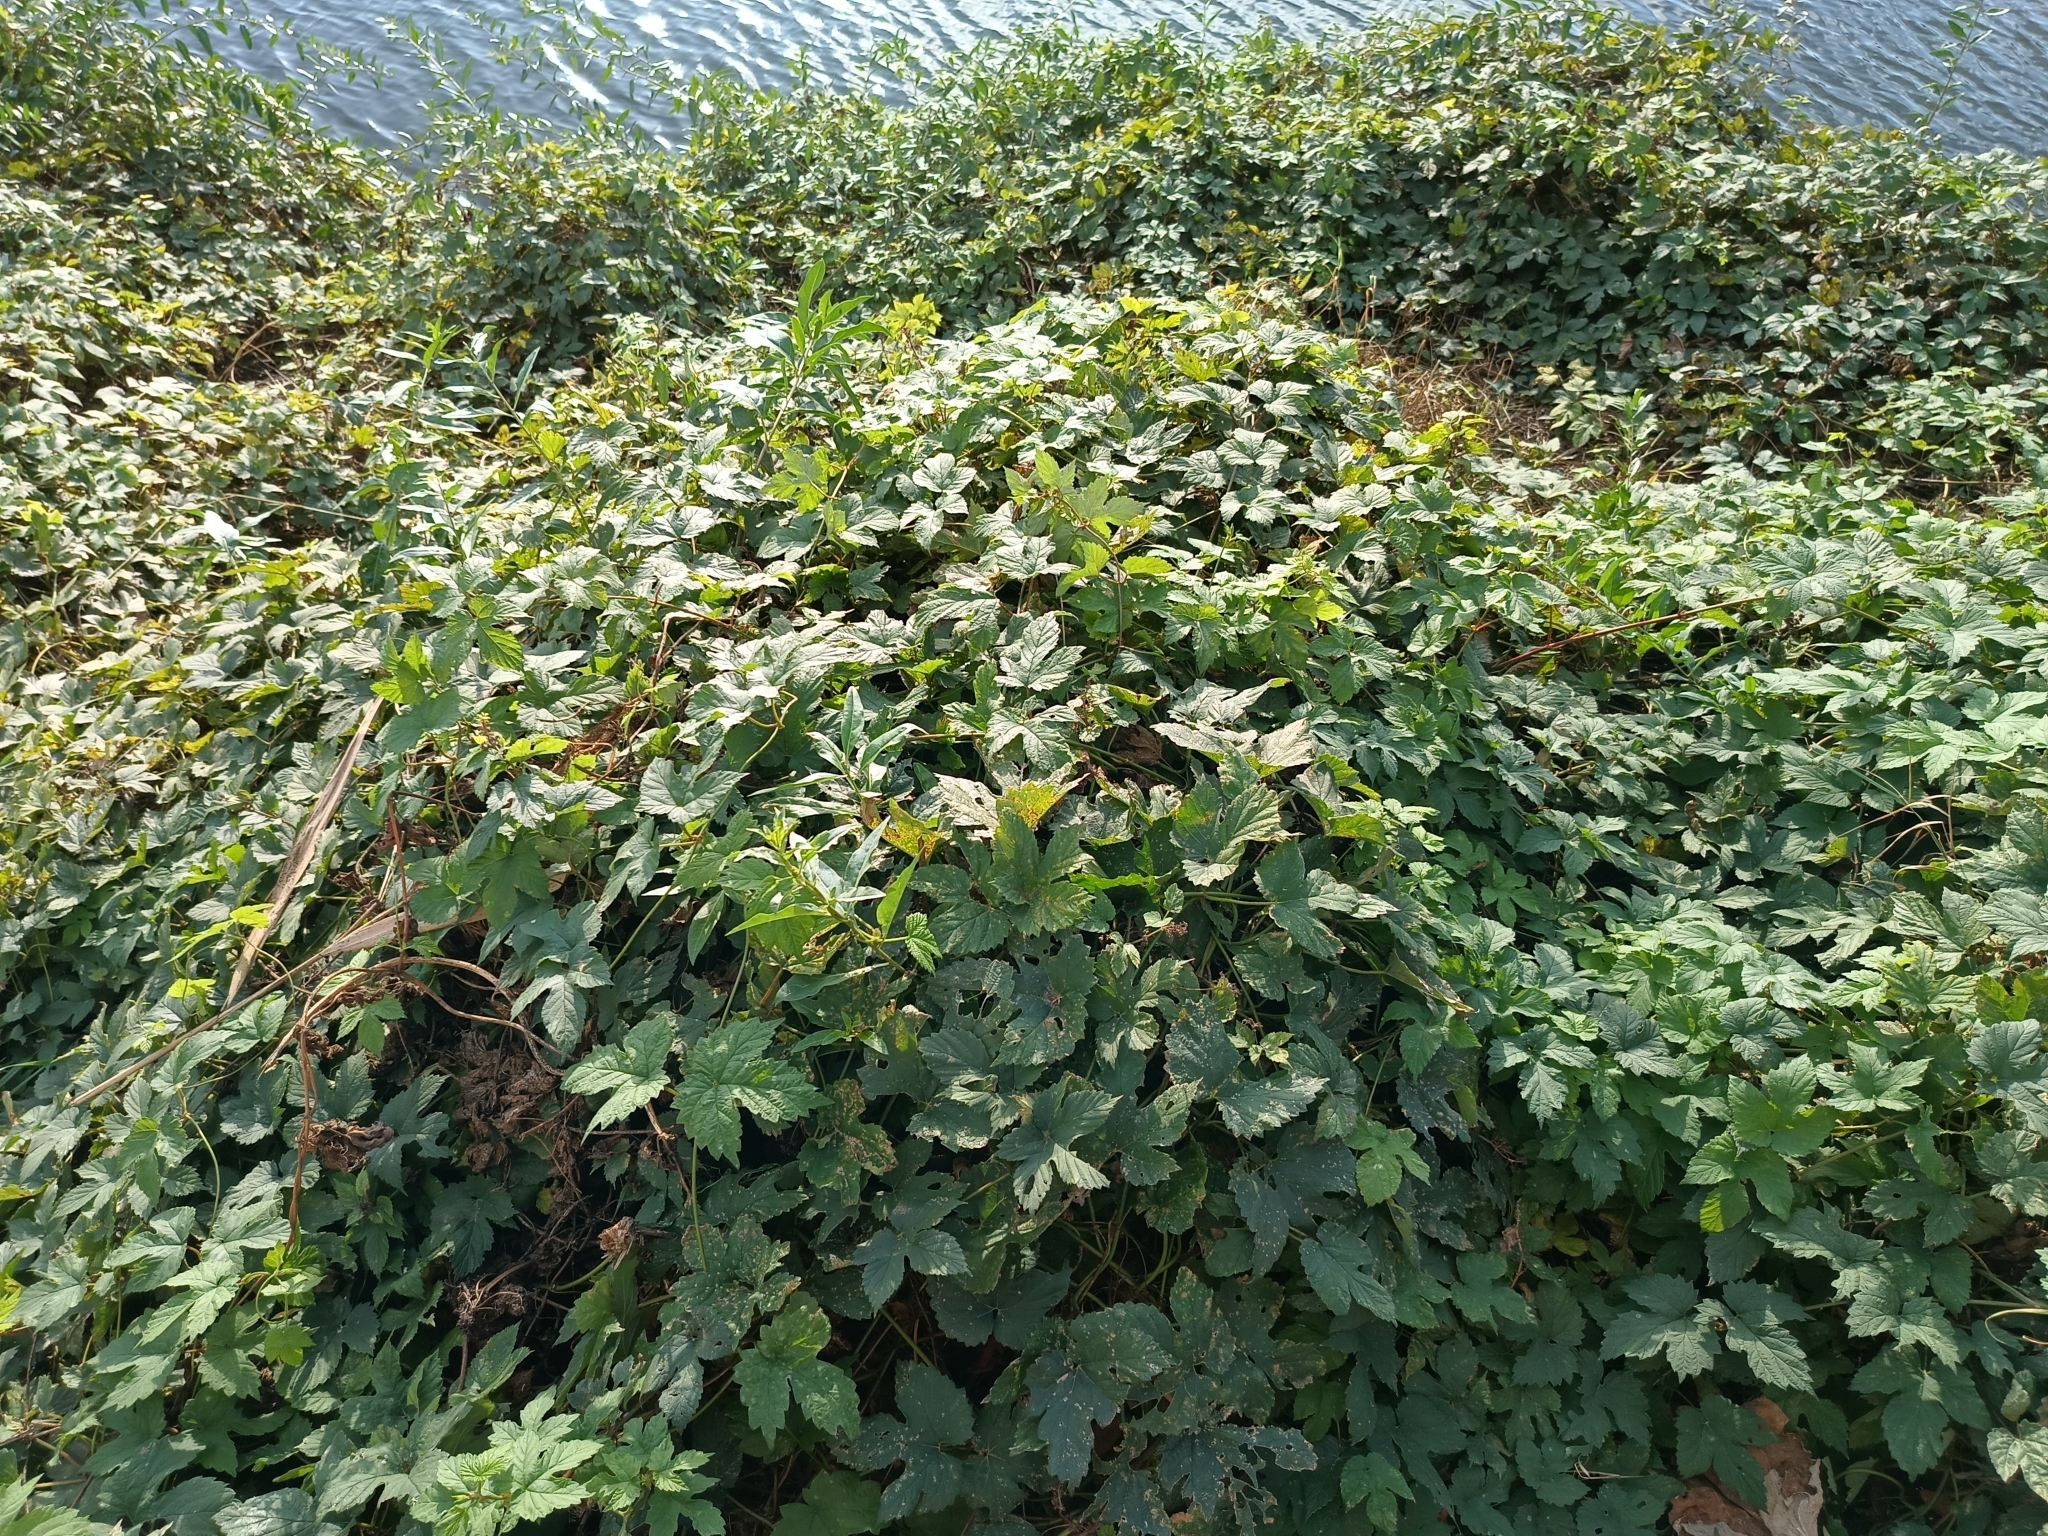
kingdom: Plantae
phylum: Tracheophyta
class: Magnoliopsida
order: Rosales
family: Cannabaceae
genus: Humulus
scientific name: Humulus lupulus
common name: Hop
